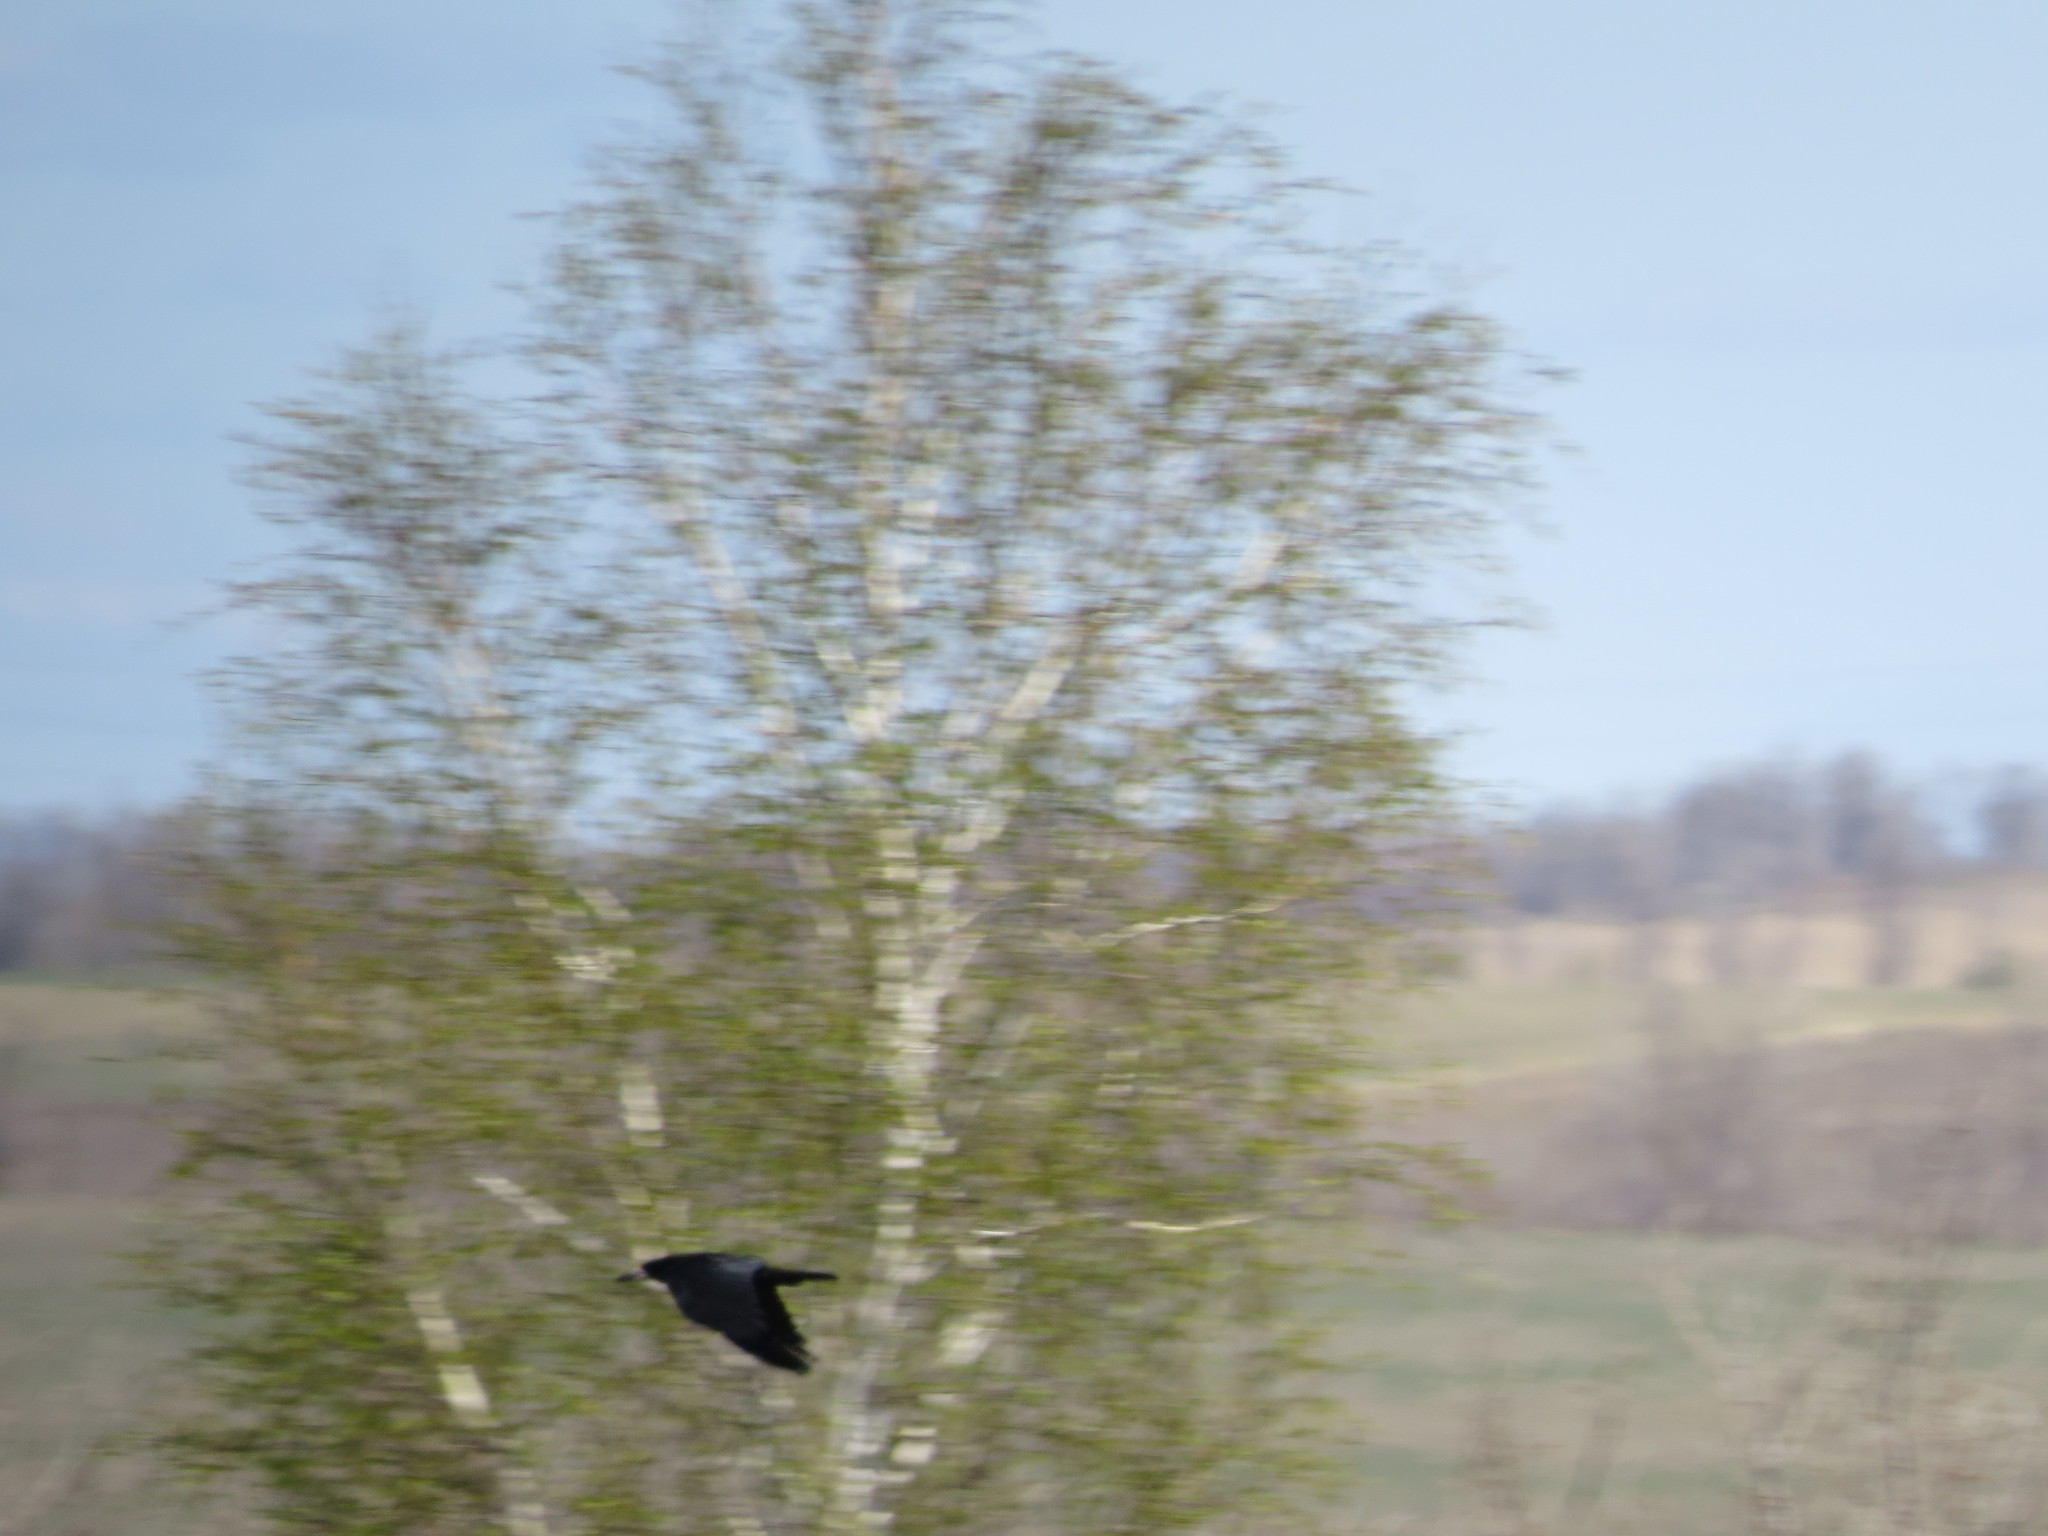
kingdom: Animalia
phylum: Chordata
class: Aves
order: Passeriformes
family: Corvidae
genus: Corvus
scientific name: Corvus frugilegus
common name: Rook
